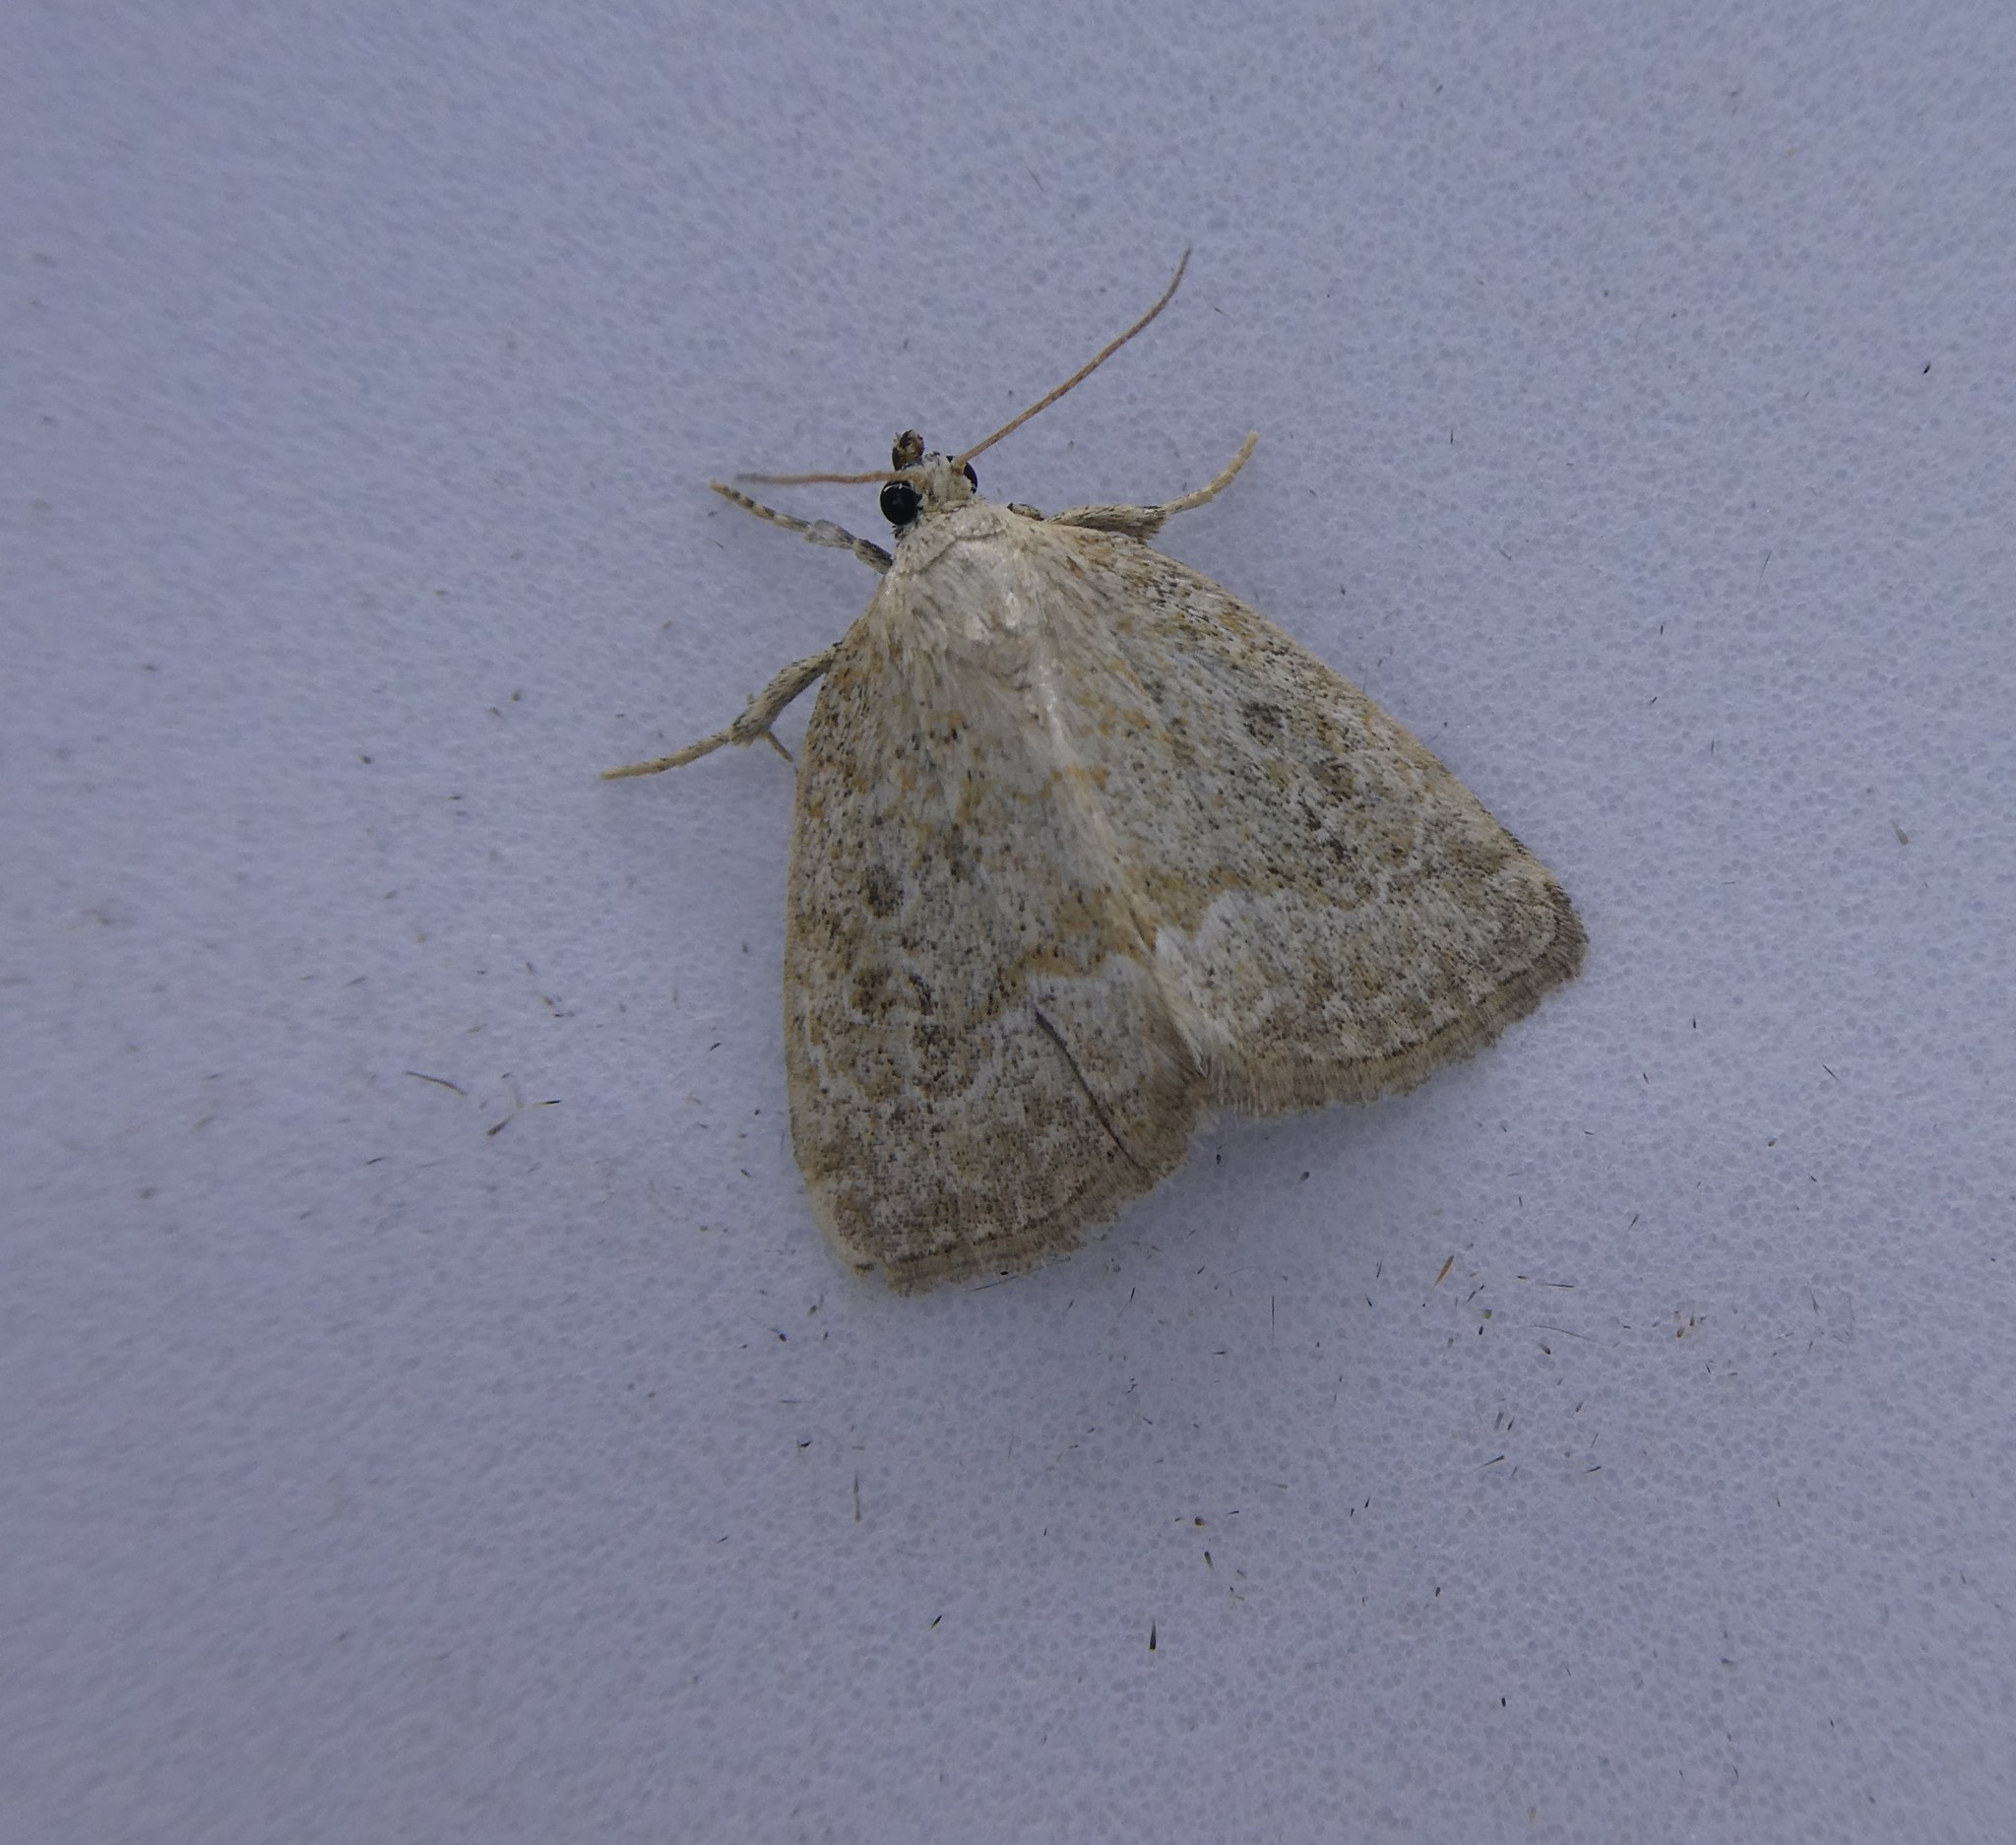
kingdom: Animalia
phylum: Arthropoda
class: Insecta
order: Lepidoptera
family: Noctuidae
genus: Protodeltote
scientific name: Protodeltote albidula
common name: Pale glyph
